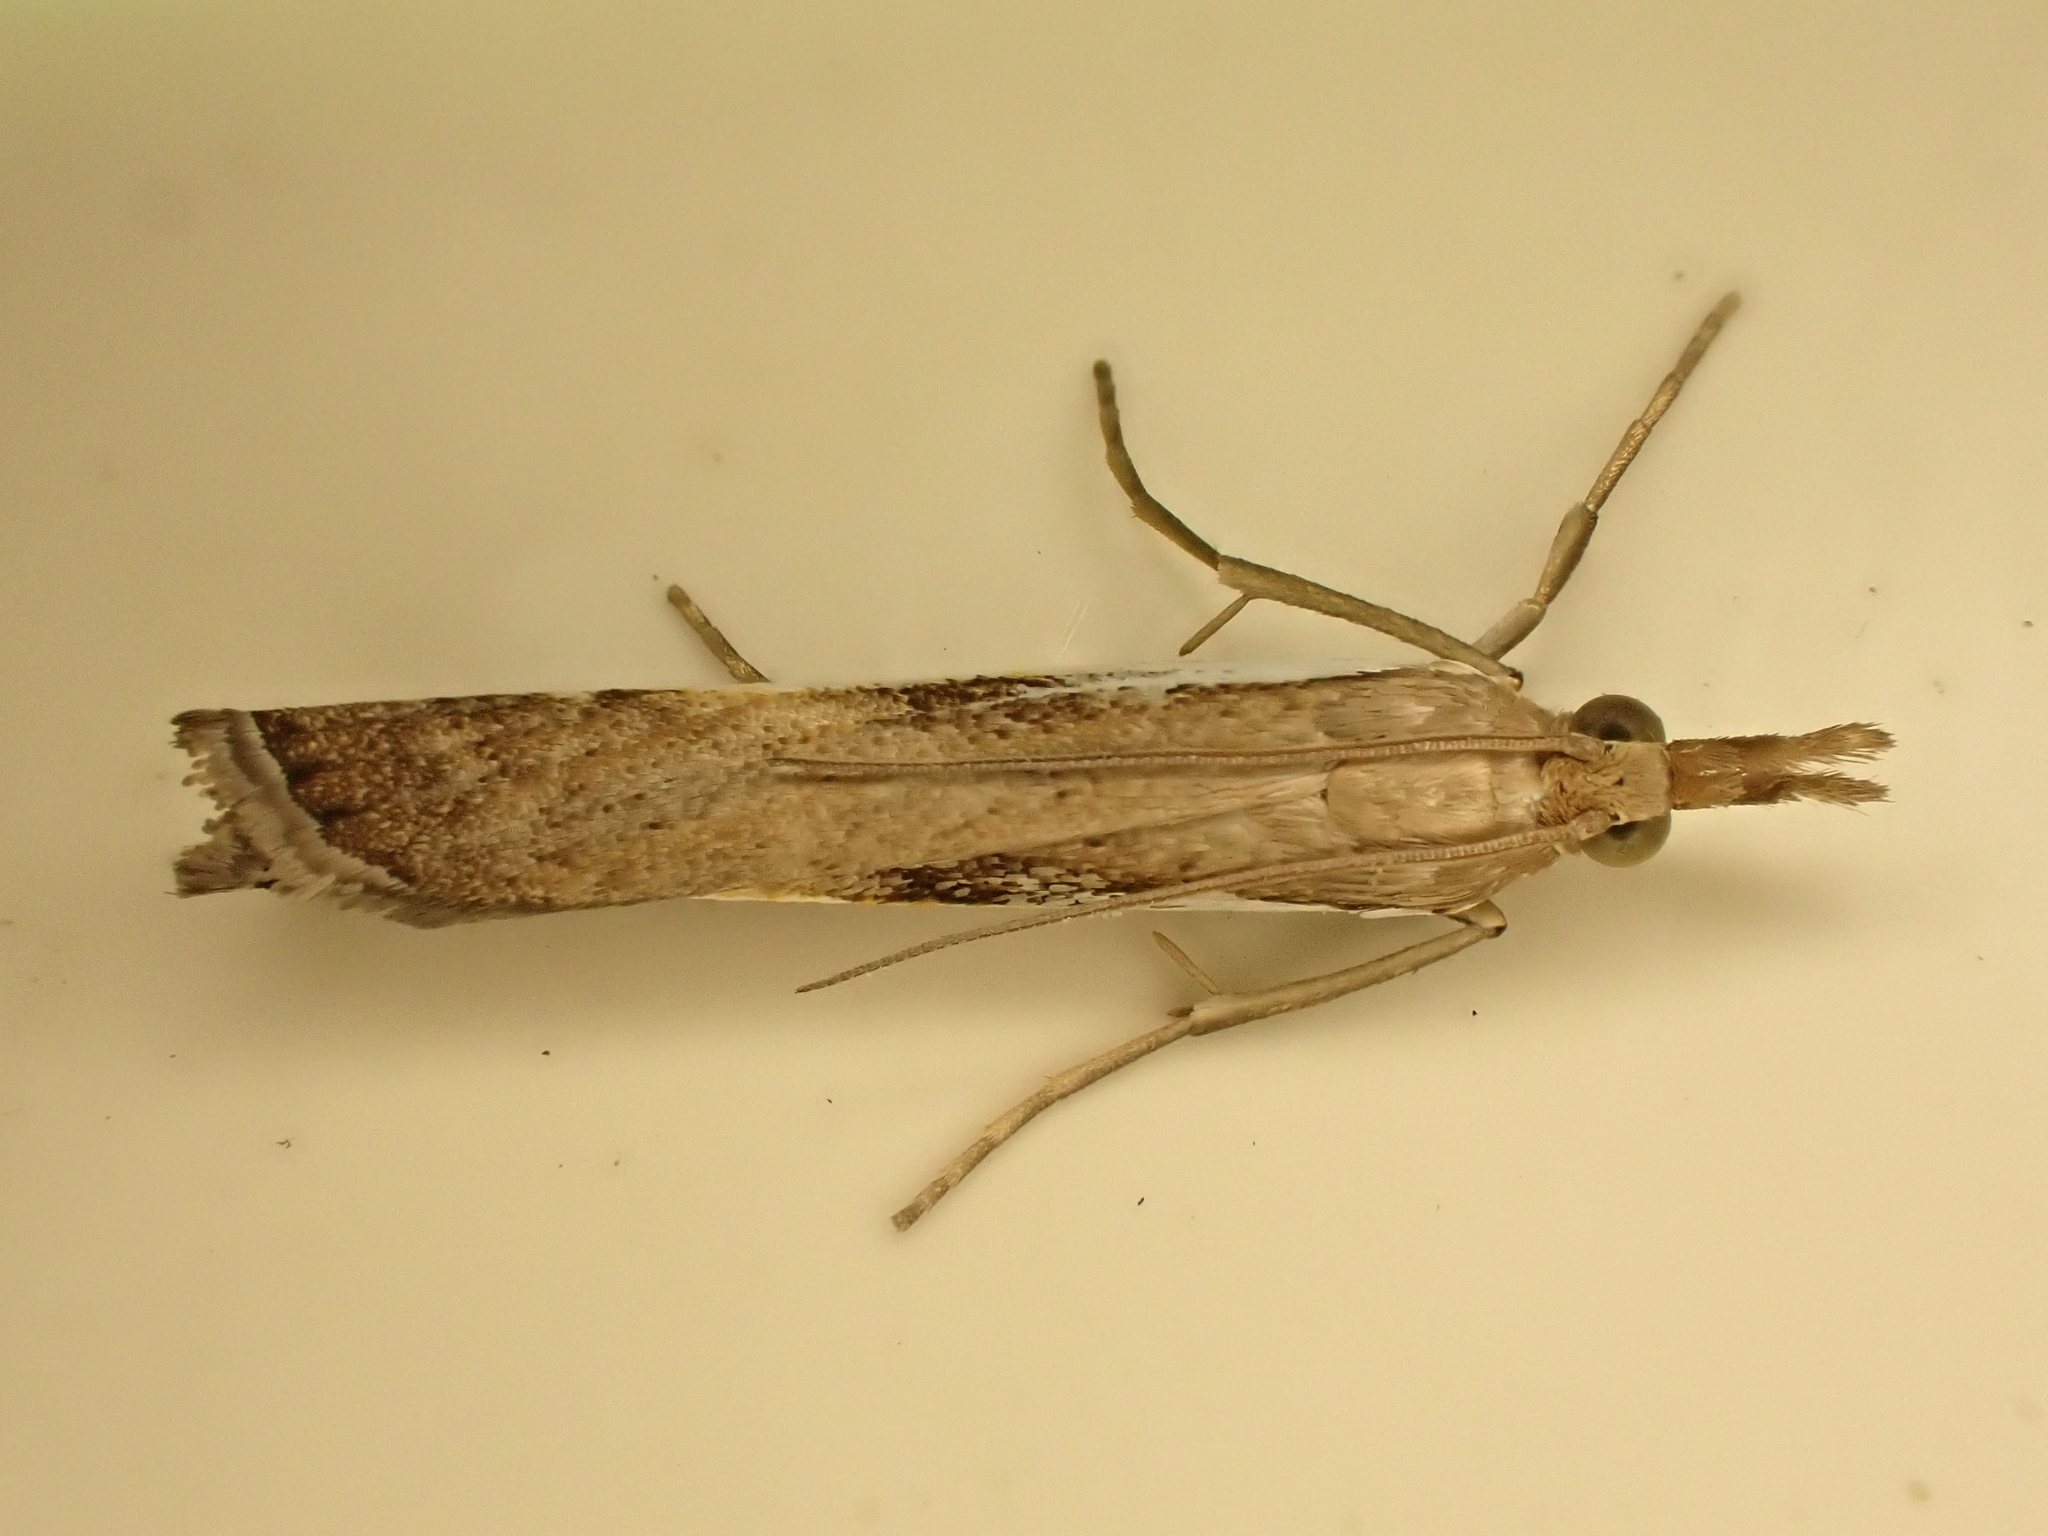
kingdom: Animalia
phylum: Arthropoda
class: Insecta
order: Lepidoptera
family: Crambidae
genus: Orocrambus
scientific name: Orocrambus flexuosellus
